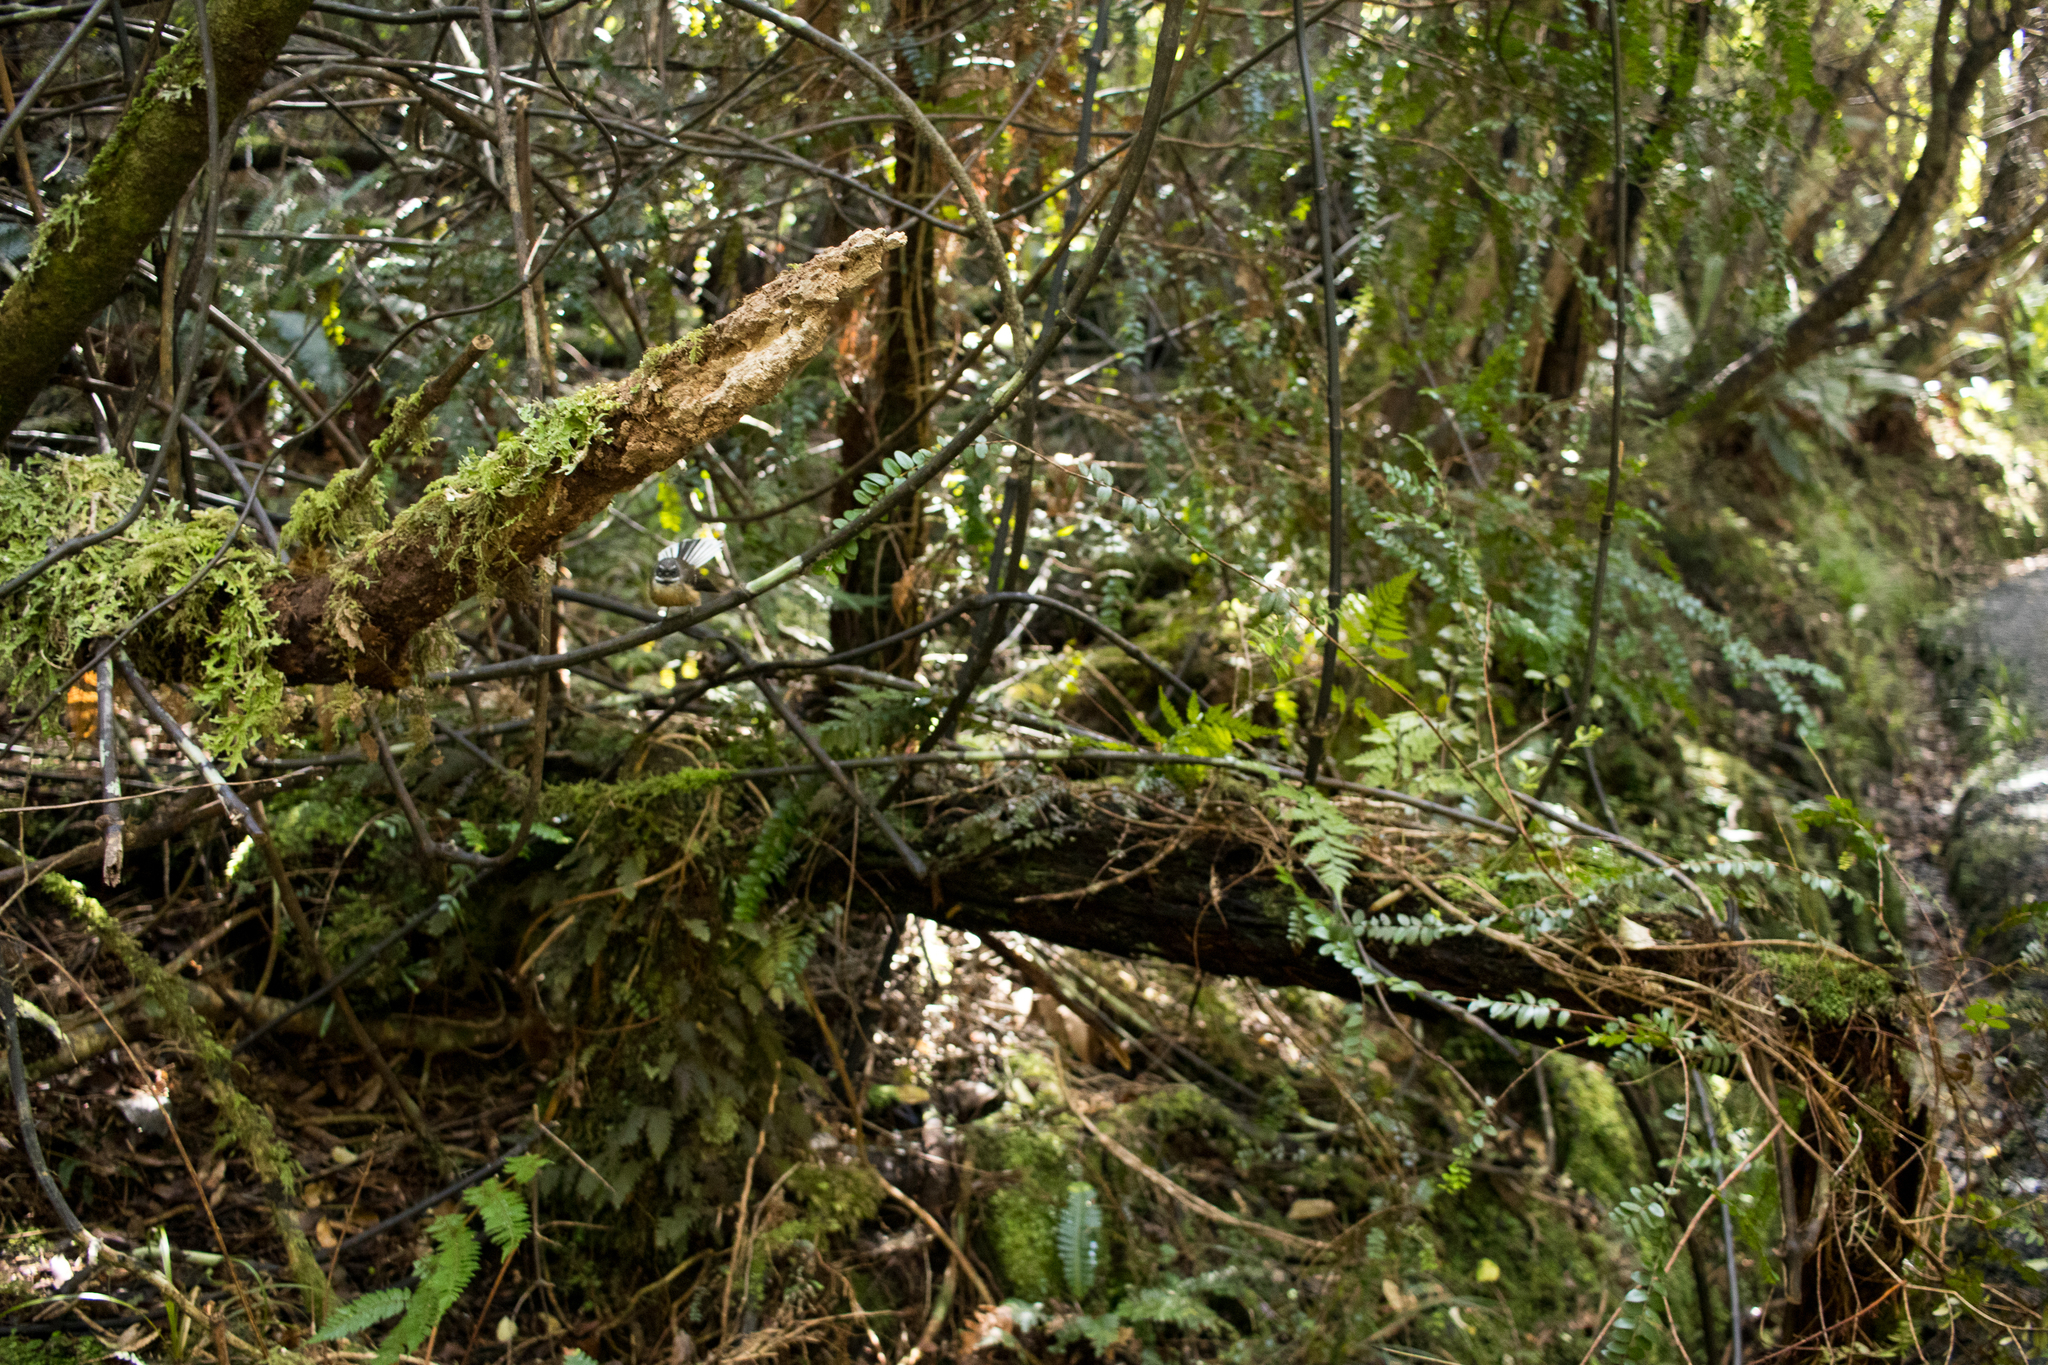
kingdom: Plantae
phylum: Tracheophyta
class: Liliopsida
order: Liliales
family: Ripogonaceae
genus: Ripogonum
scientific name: Ripogonum scandens
